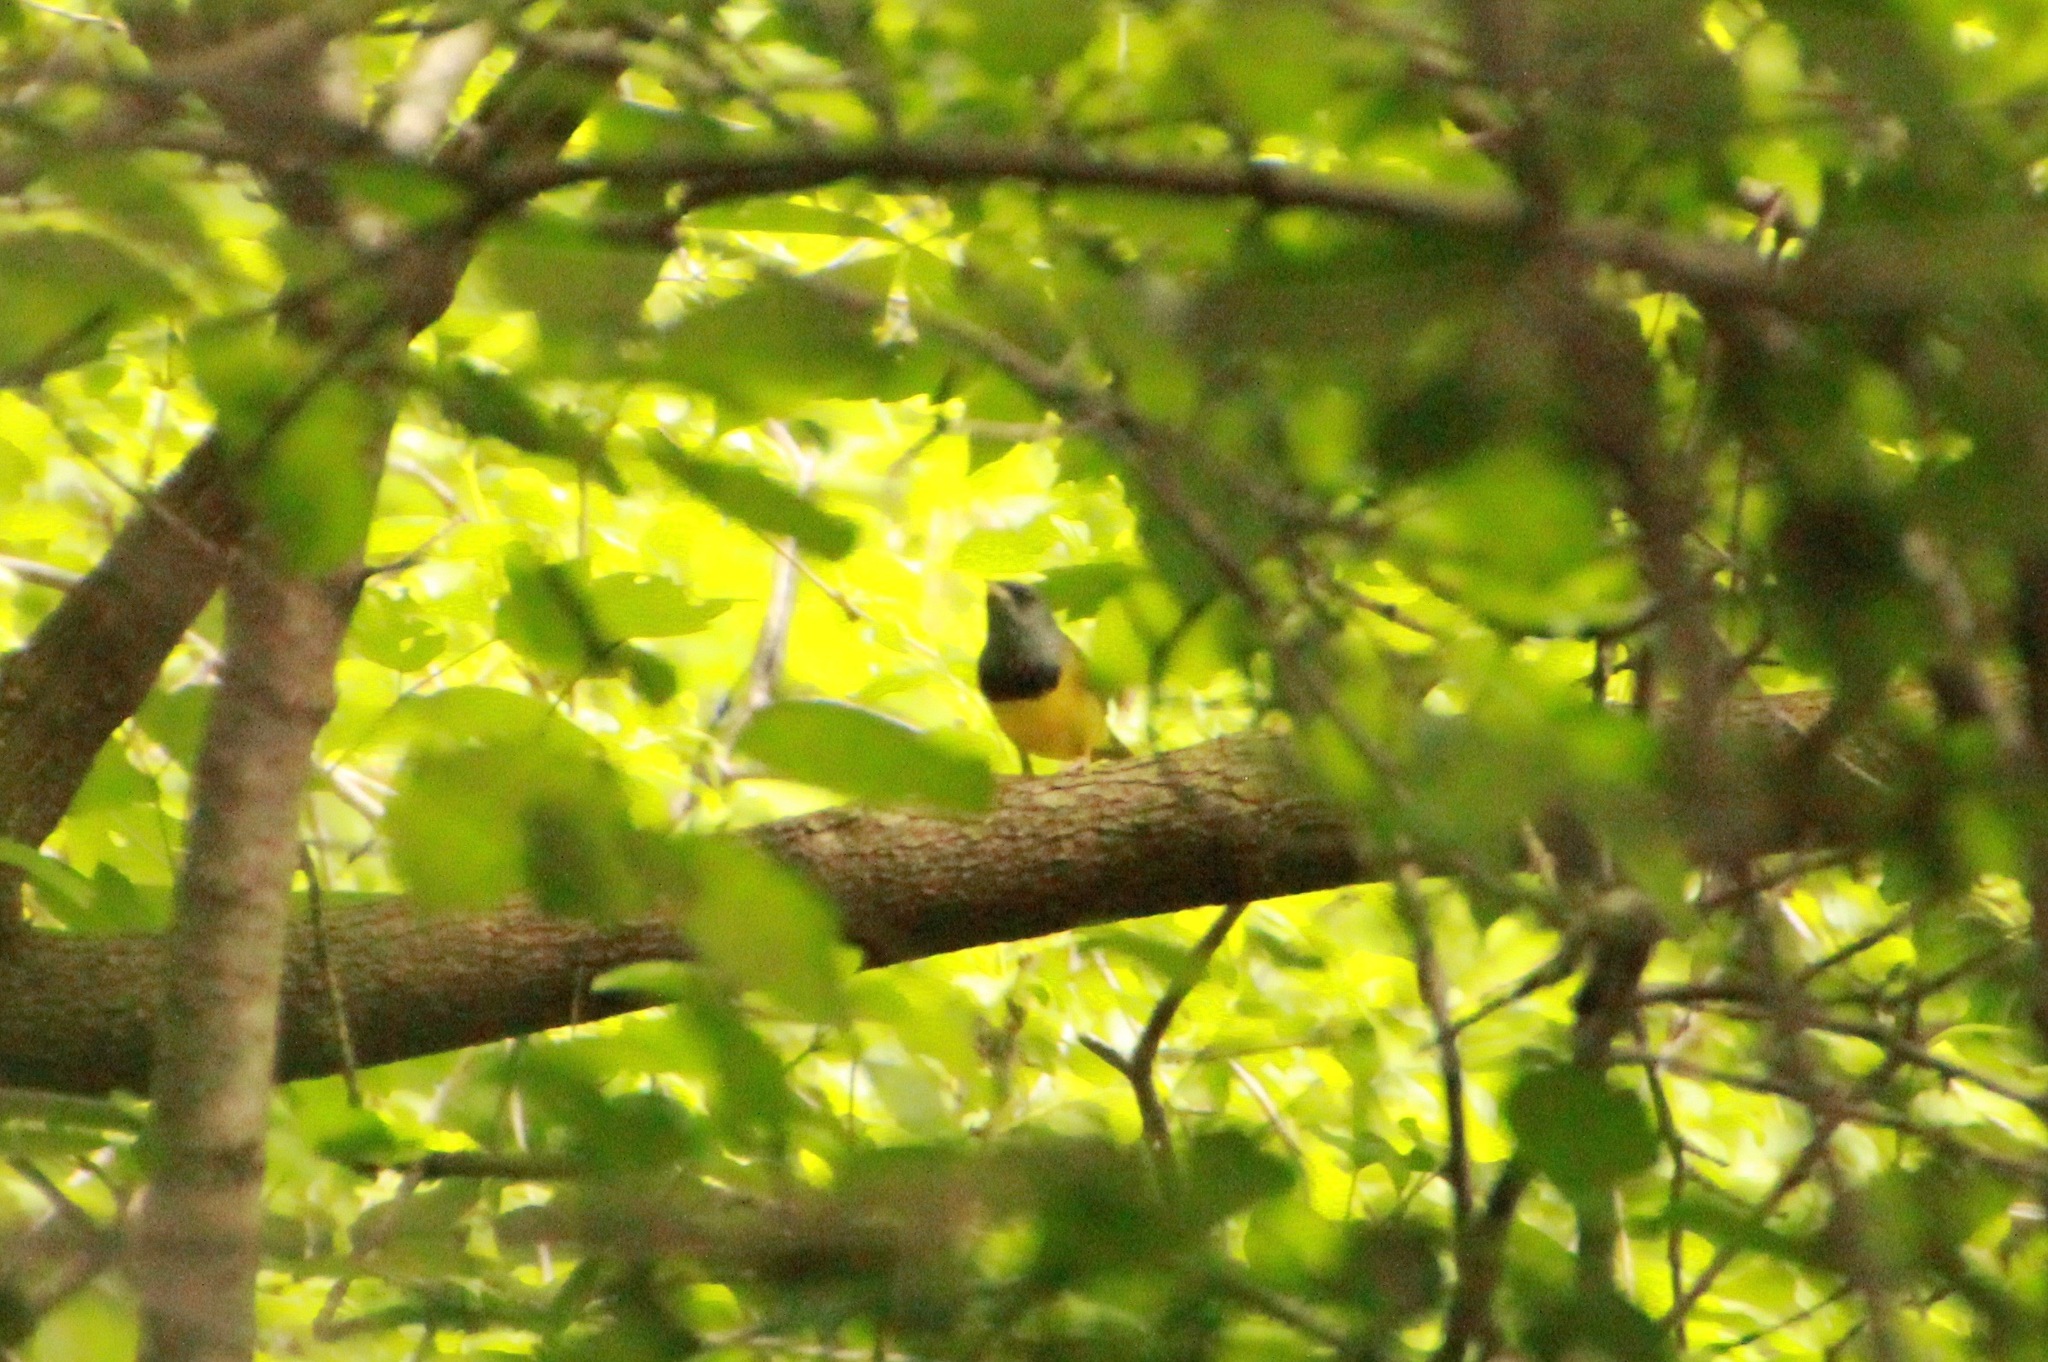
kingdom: Animalia
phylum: Chordata
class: Aves
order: Passeriformes
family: Parulidae
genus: Geothlypis
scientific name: Geothlypis philadelphia
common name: Mourning warbler
